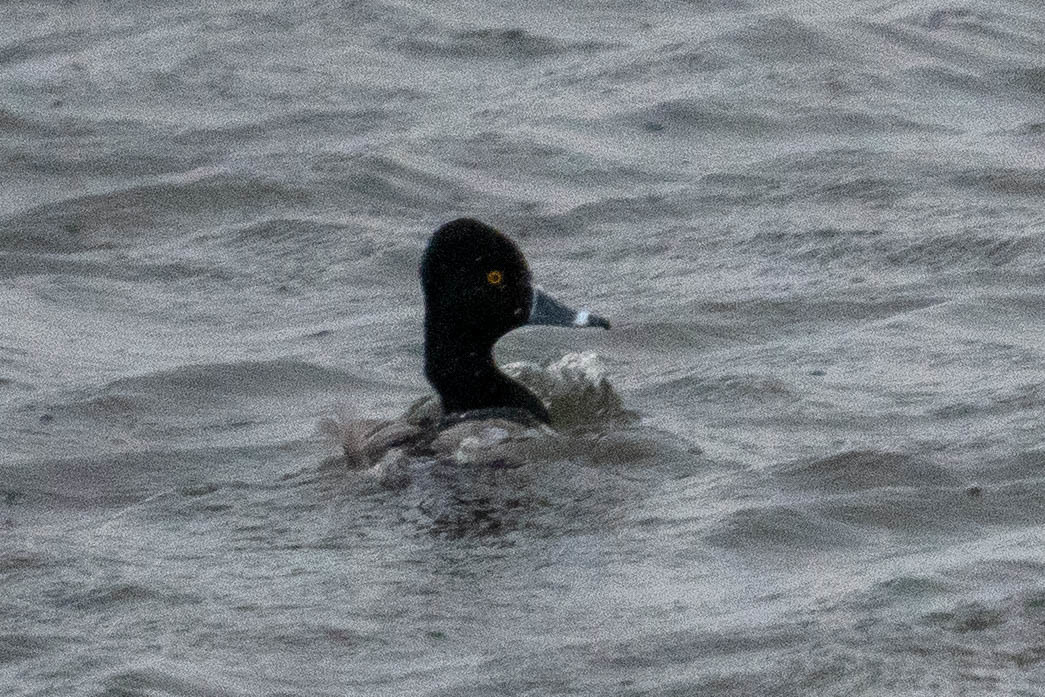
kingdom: Animalia
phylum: Chordata
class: Aves
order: Anseriformes
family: Anatidae
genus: Aythya
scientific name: Aythya collaris
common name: Ring-necked duck
